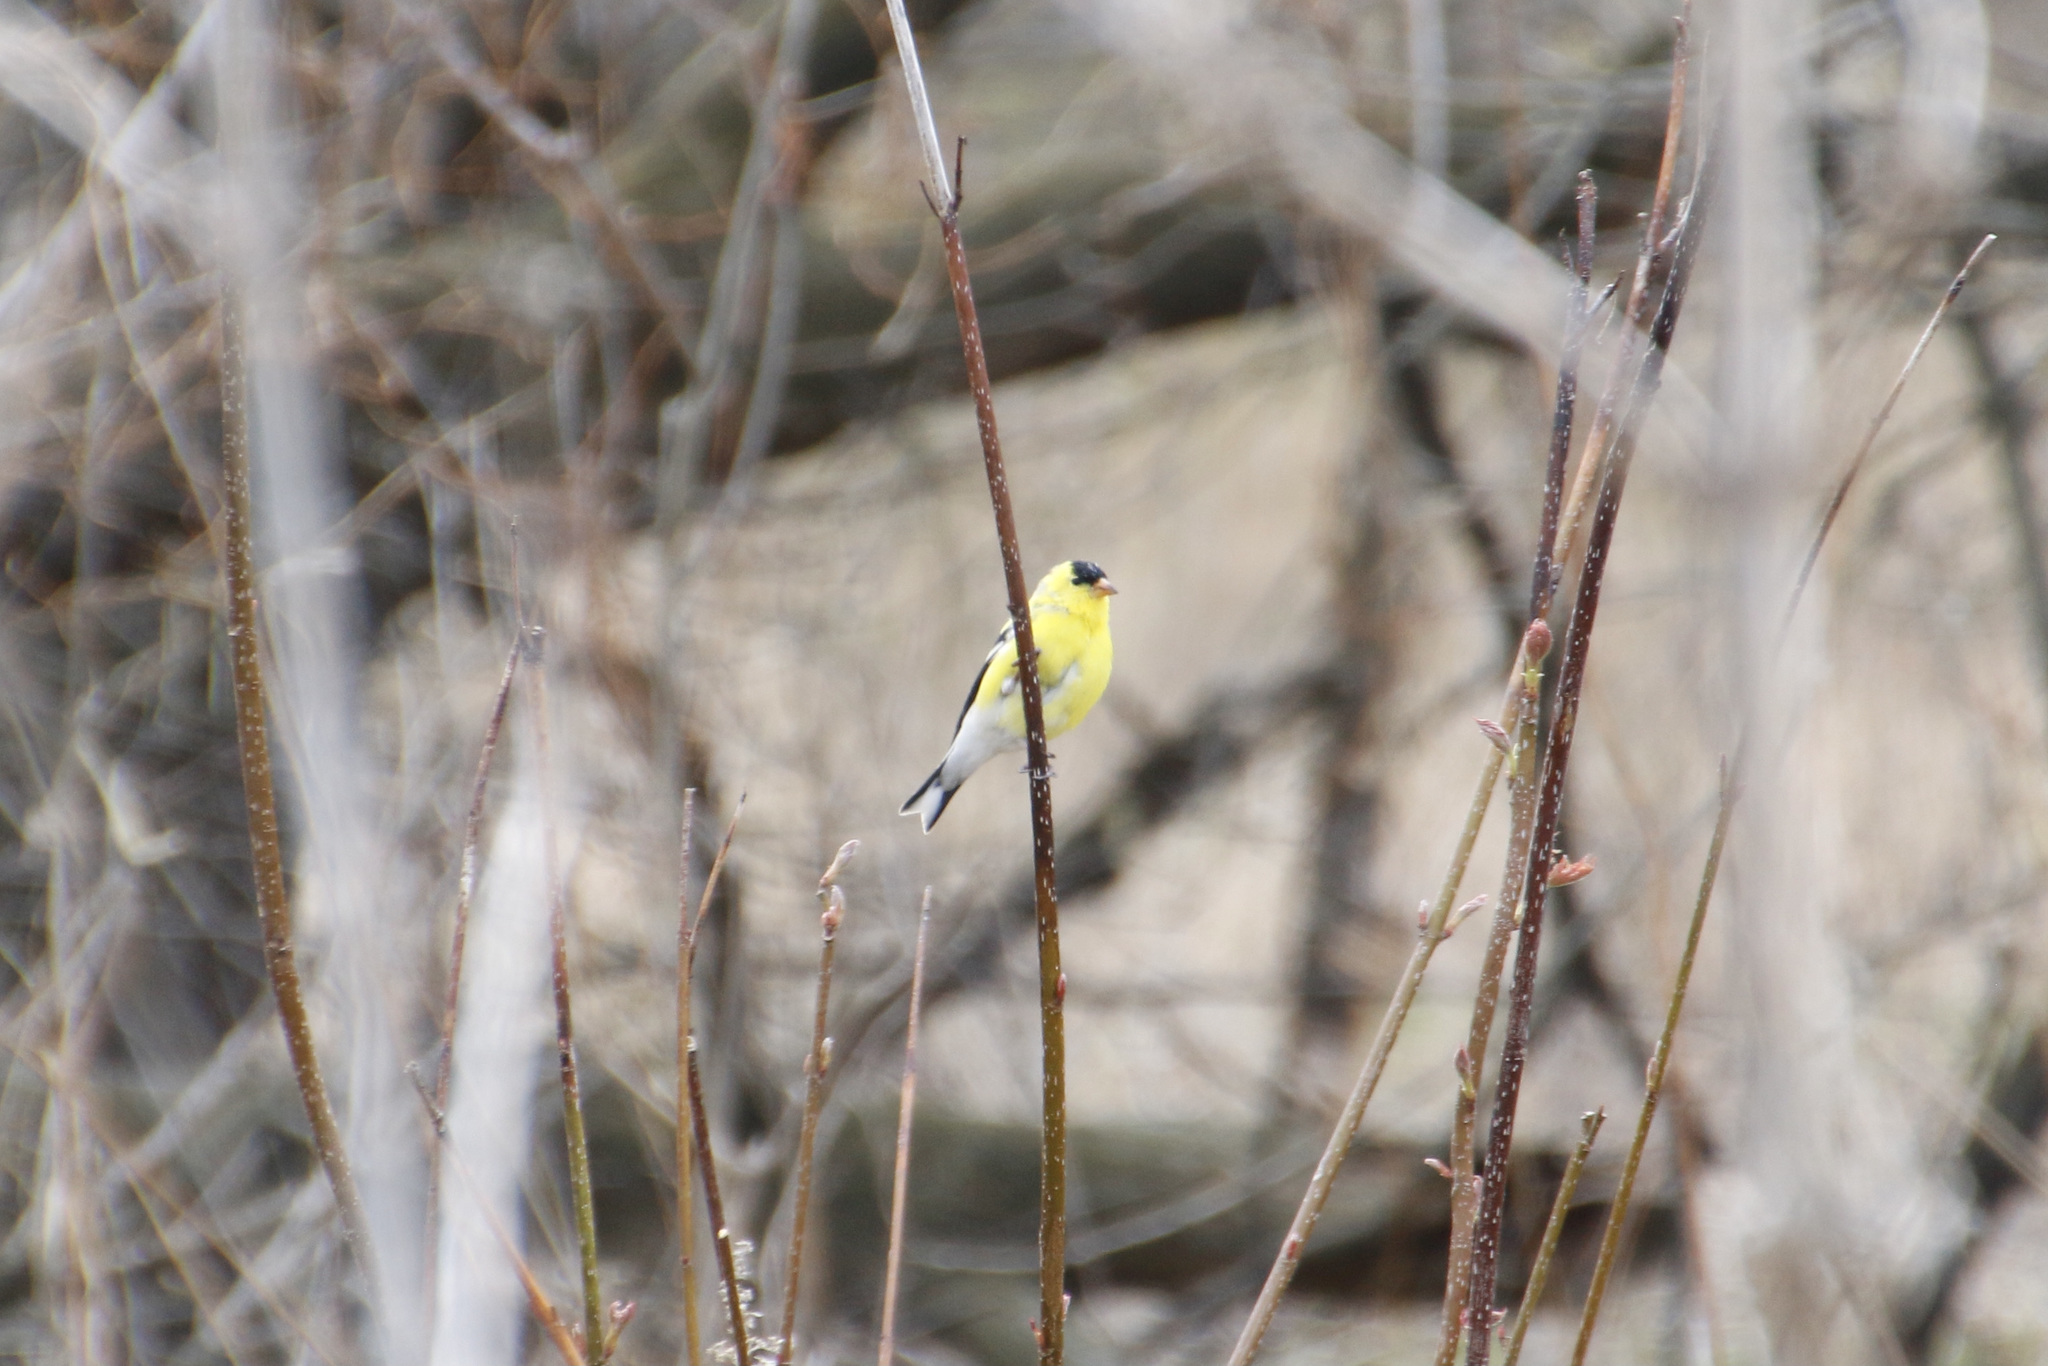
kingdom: Animalia
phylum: Chordata
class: Aves
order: Passeriformes
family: Fringillidae
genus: Spinus
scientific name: Spinus tristis
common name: American goldfinch
